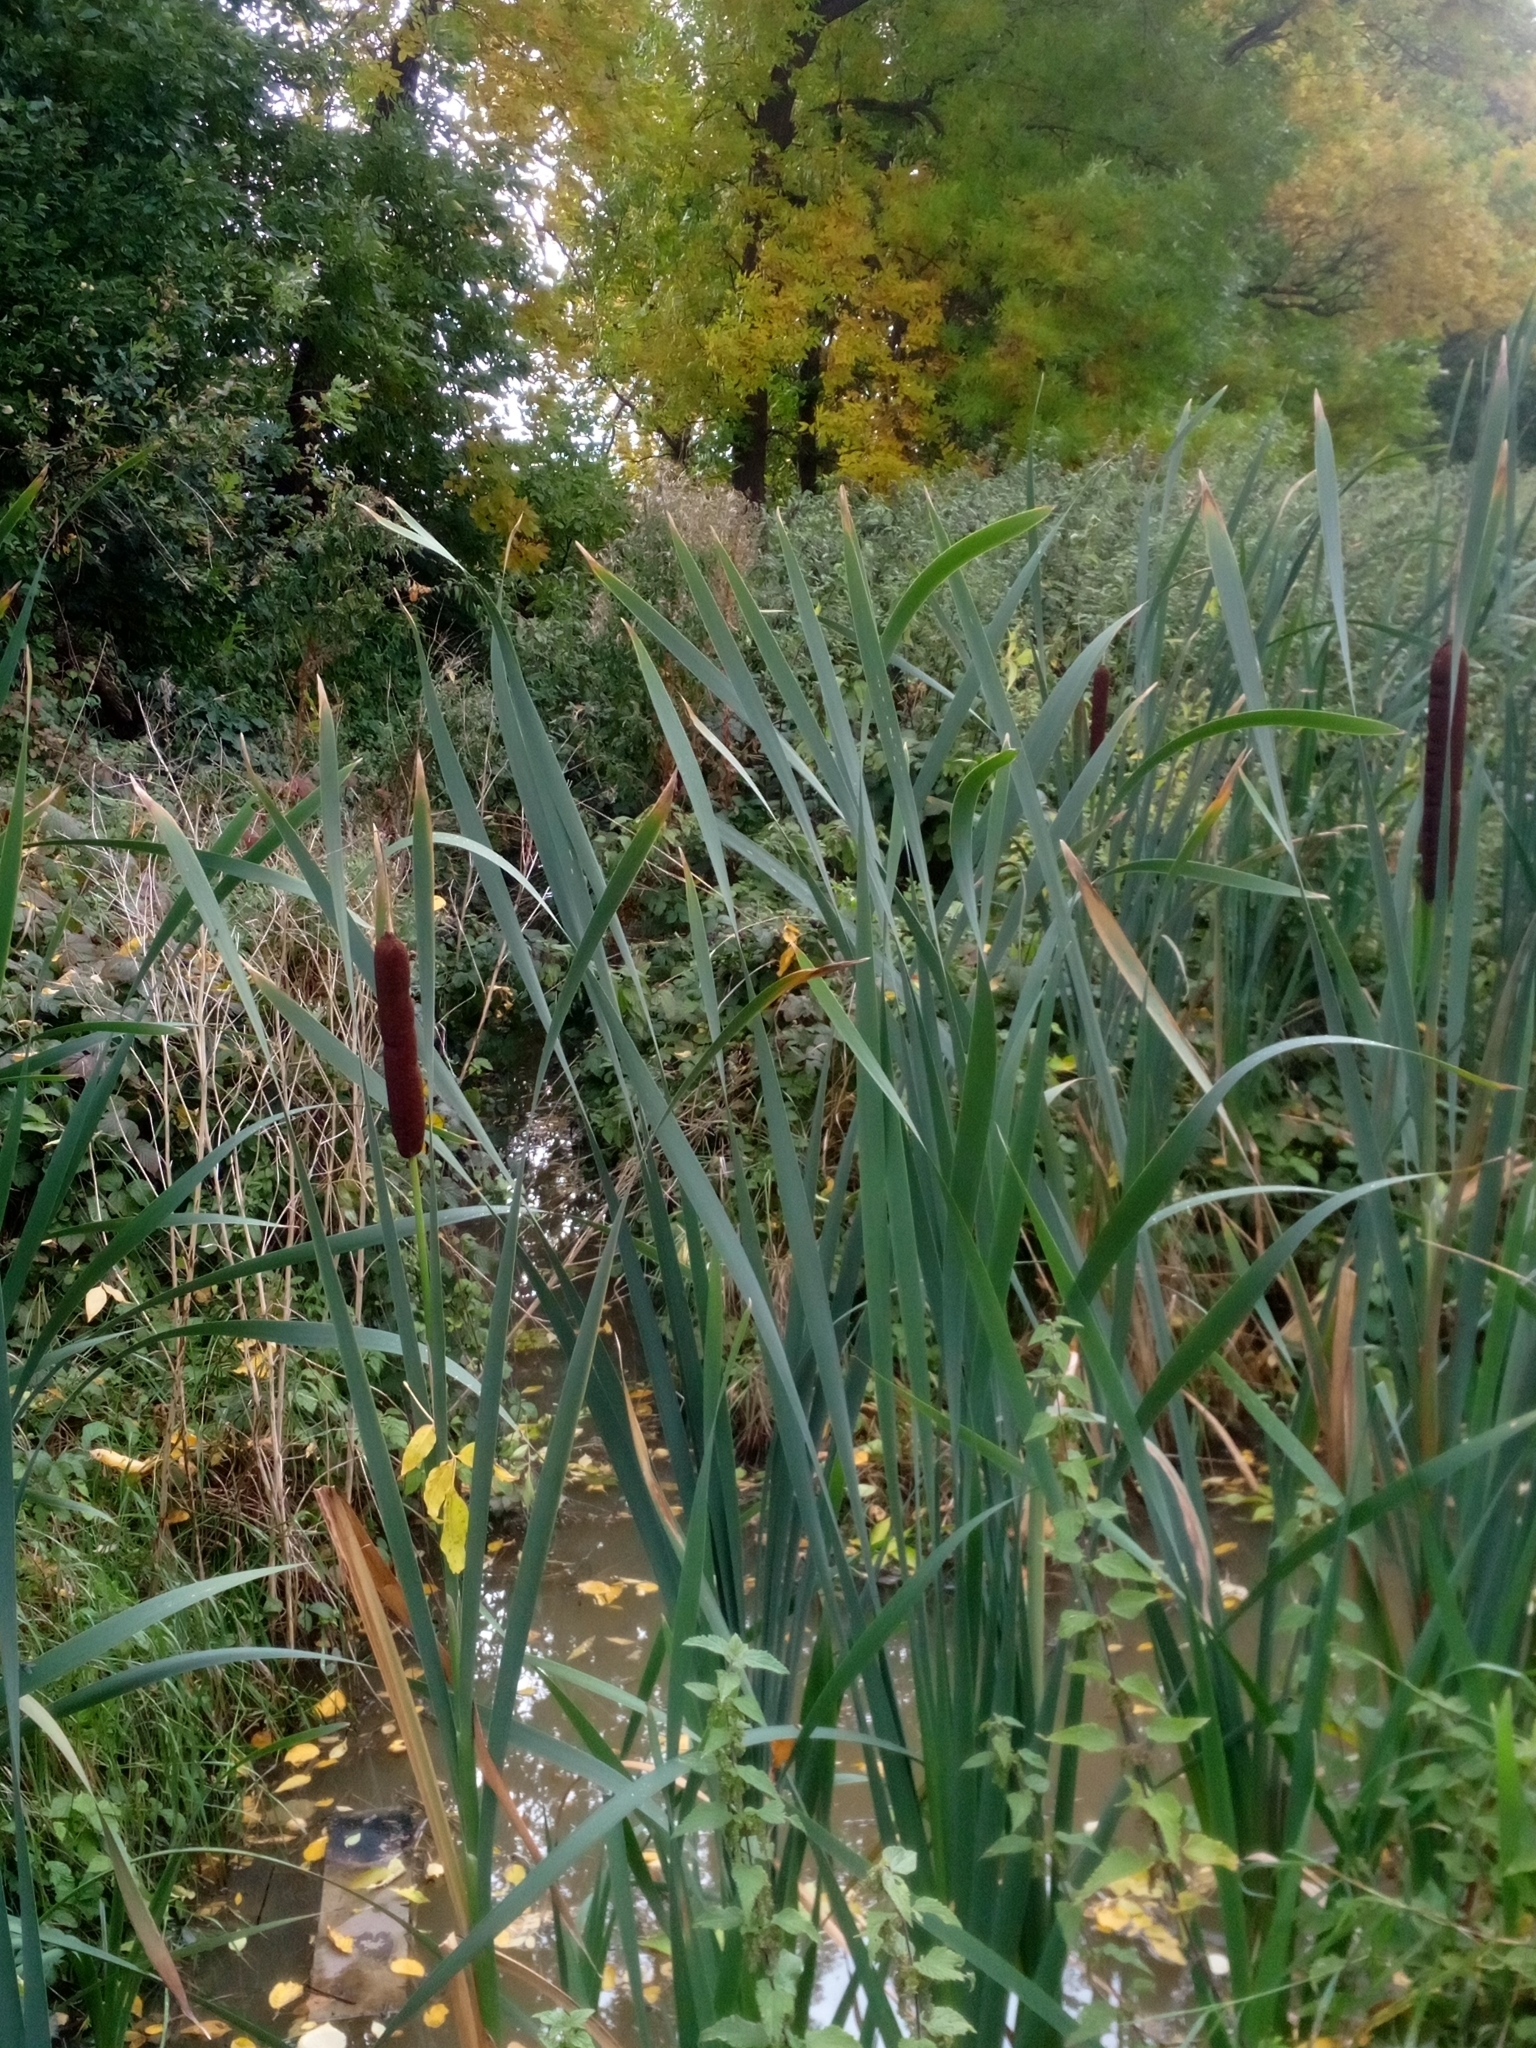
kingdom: Plantae
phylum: Tracheophyta
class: Liliopsida
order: Poales
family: Typhaceae
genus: Typha
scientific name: Typha latifolia
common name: Broadleaf cattail
